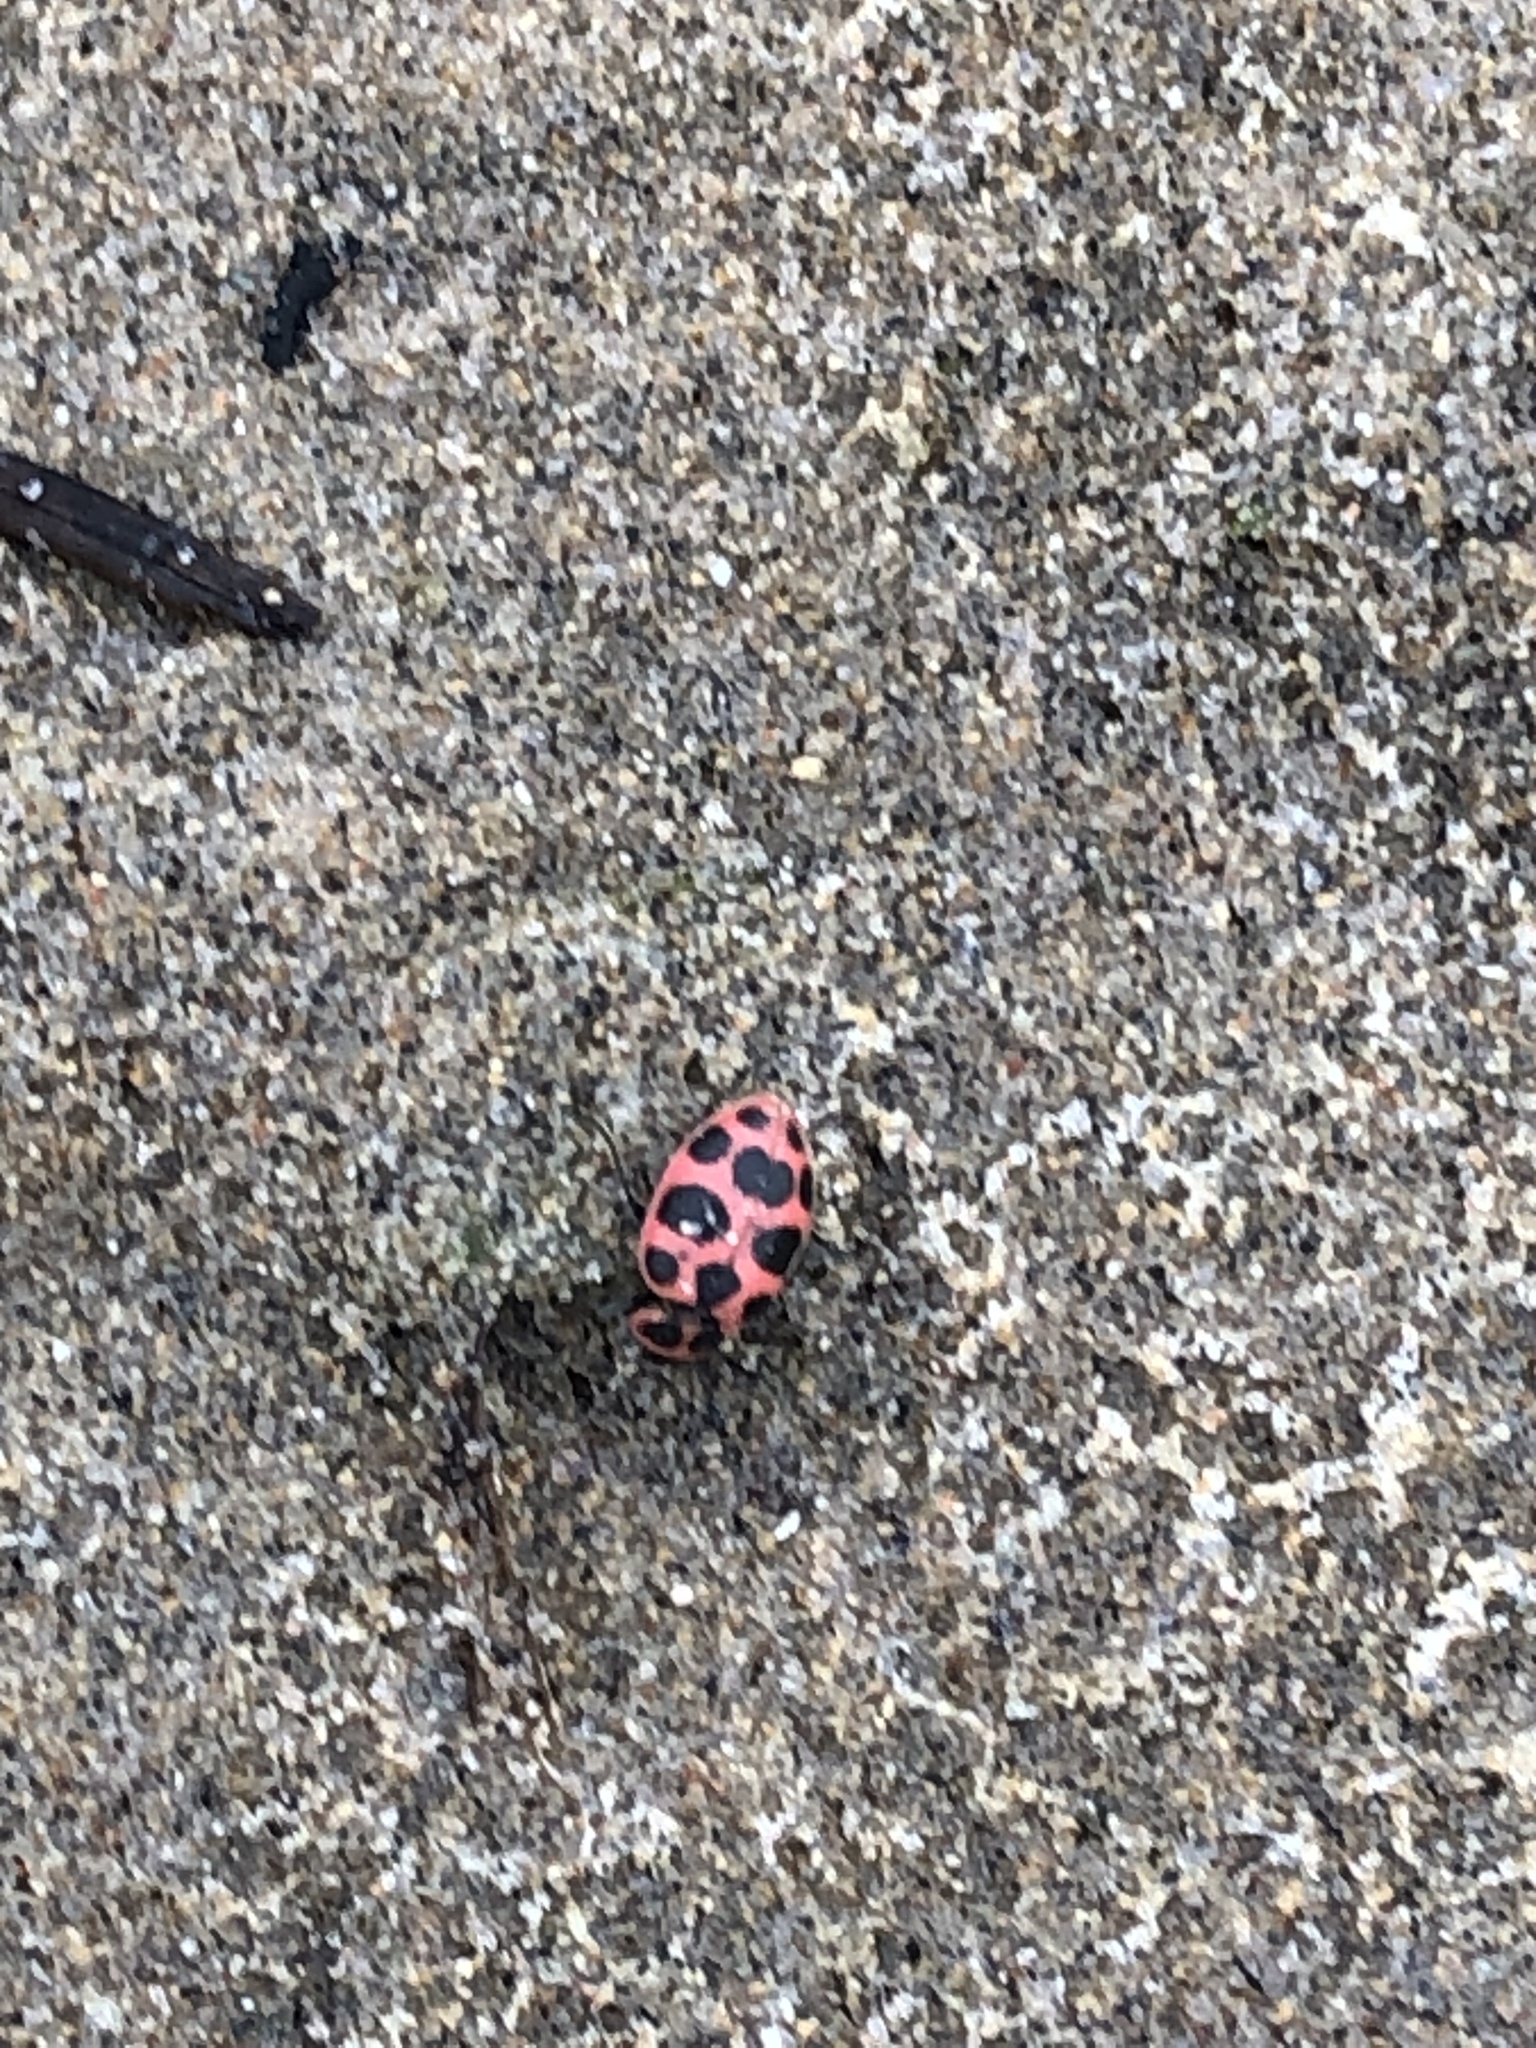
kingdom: Animalia
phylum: Arthropoda
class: Insecta
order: Coleoptera
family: Coccinellidae
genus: Coleomegilla
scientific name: Coleomegilla maculata
